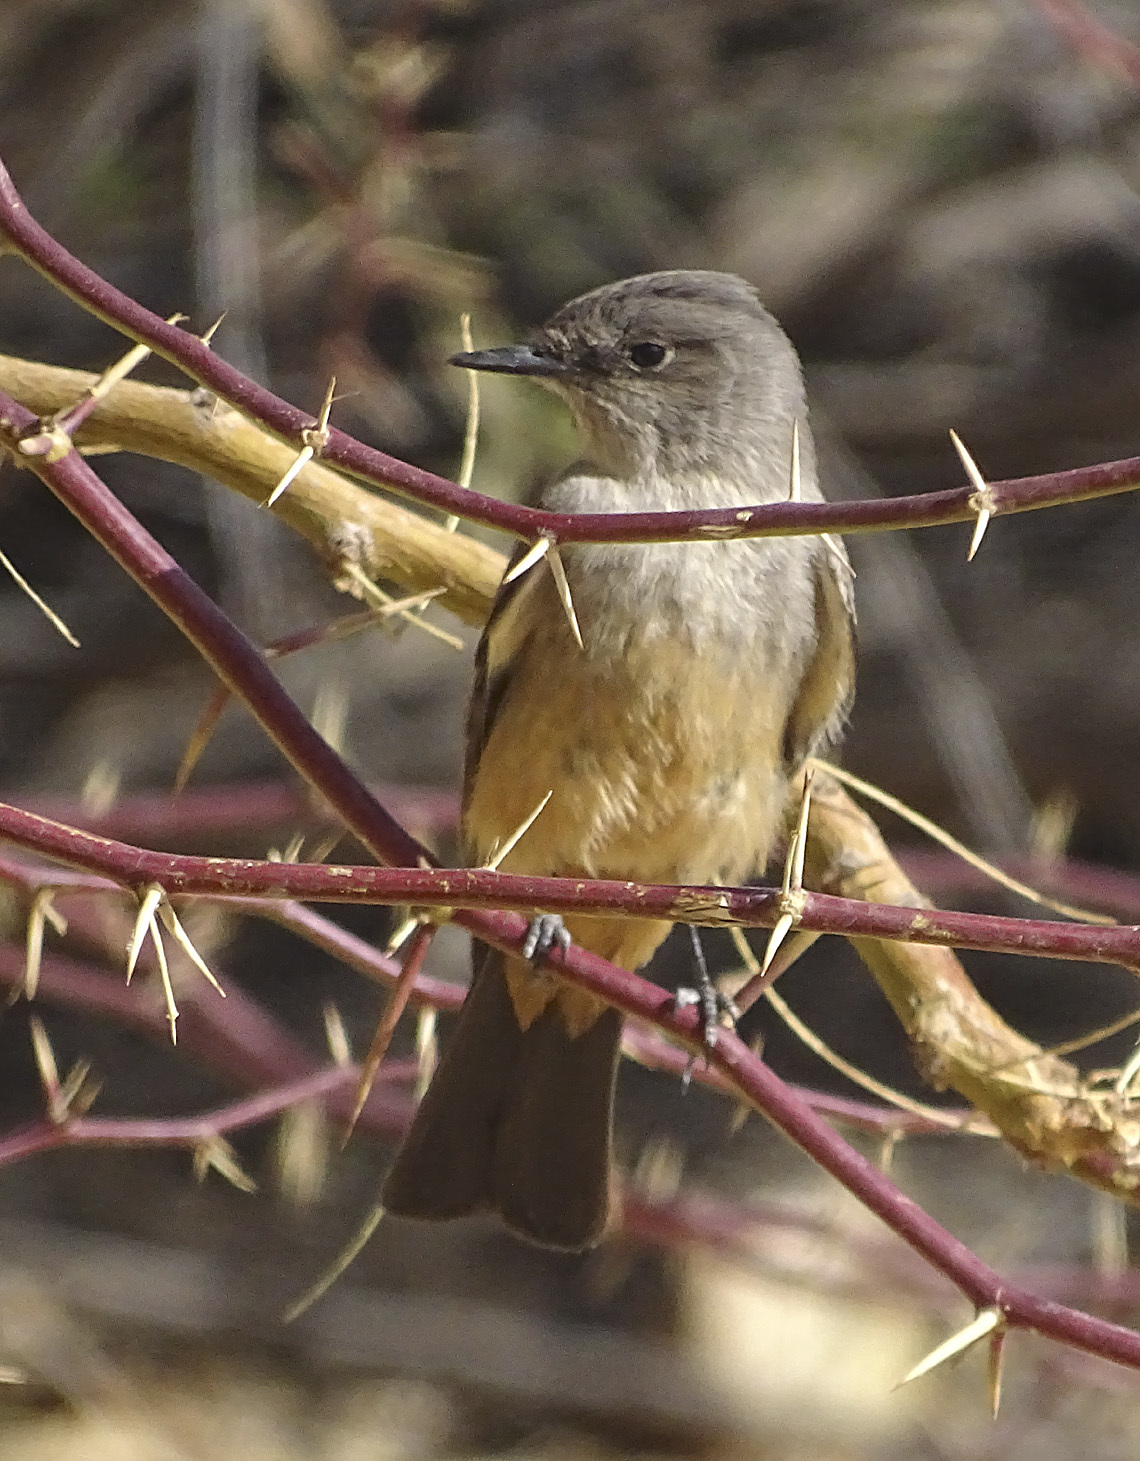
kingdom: Animalia
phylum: Chordata
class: Aves
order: Passeriformes
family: Tyrannidae
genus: Sayornis
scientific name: Sayornis saya
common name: Say's phoebe
